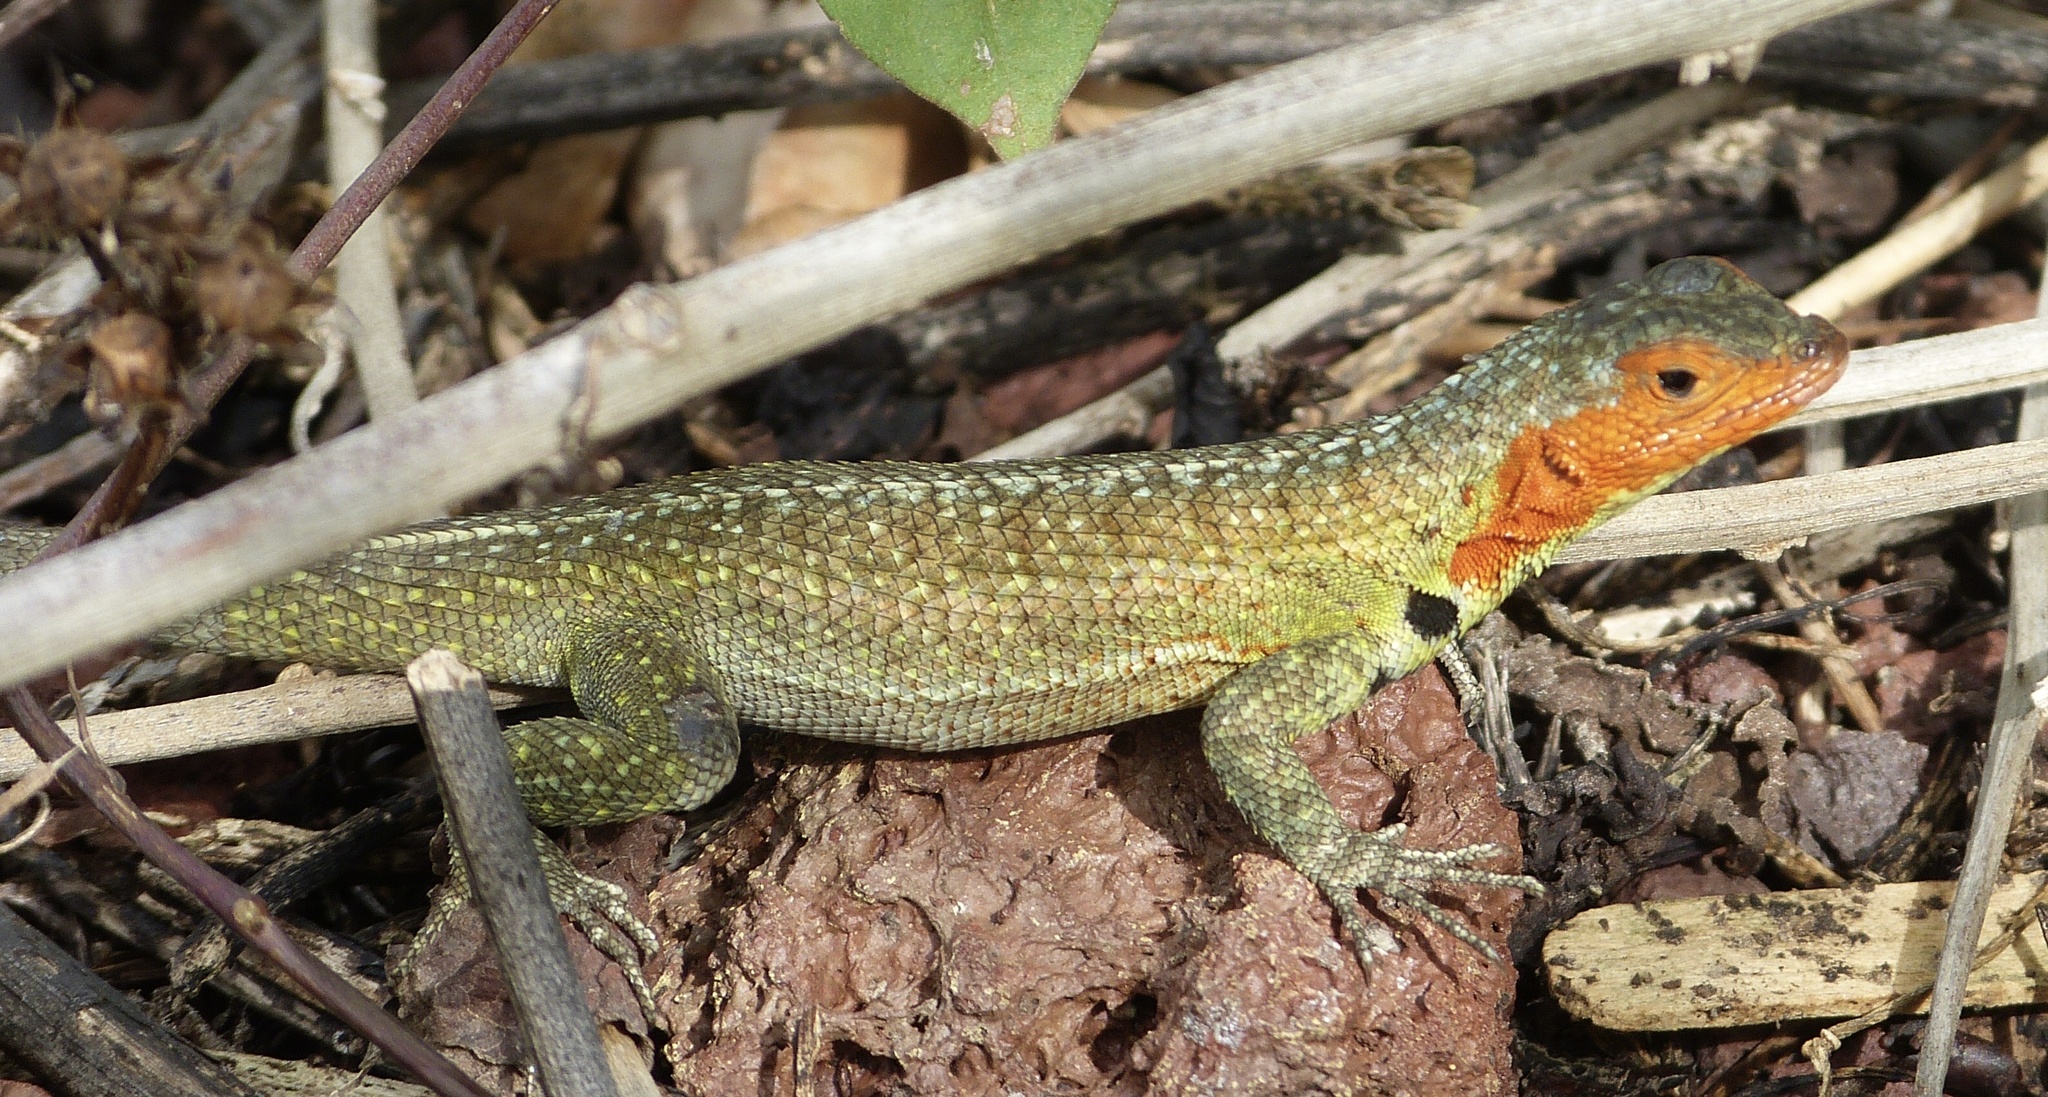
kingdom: Animalia
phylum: Chordata
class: Squamata
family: Tropiduridae
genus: Microlophus
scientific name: Microlophus indefatigabilis
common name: Galapagos lava lizard
